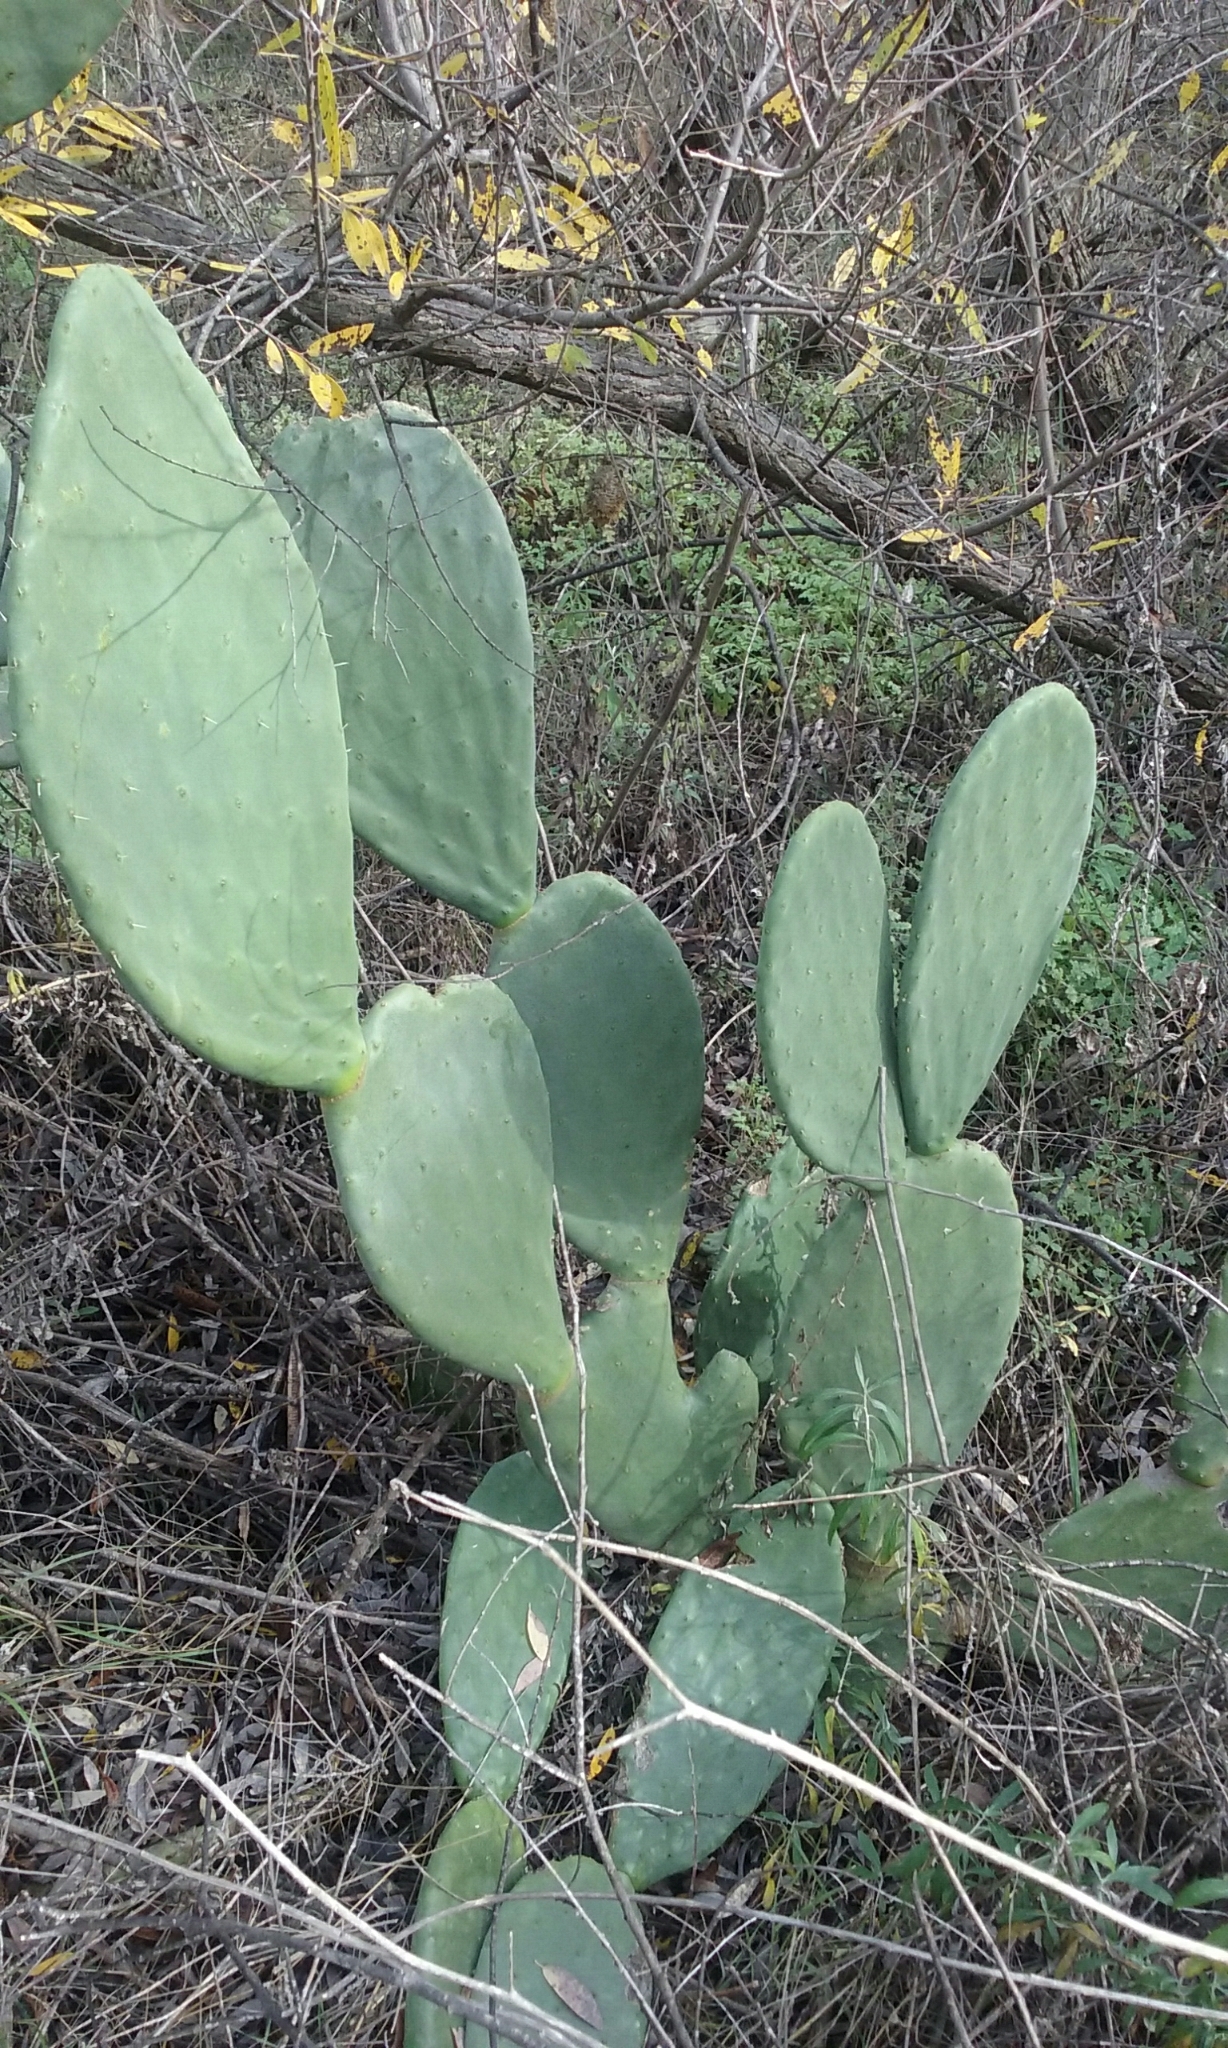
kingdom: Plantae
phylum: Tracheophyta
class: Magnoliopsida
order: Caryophyllales
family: Cactaceae
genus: Opuntia
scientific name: Opuntia ficus-indica
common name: Barbary fig
